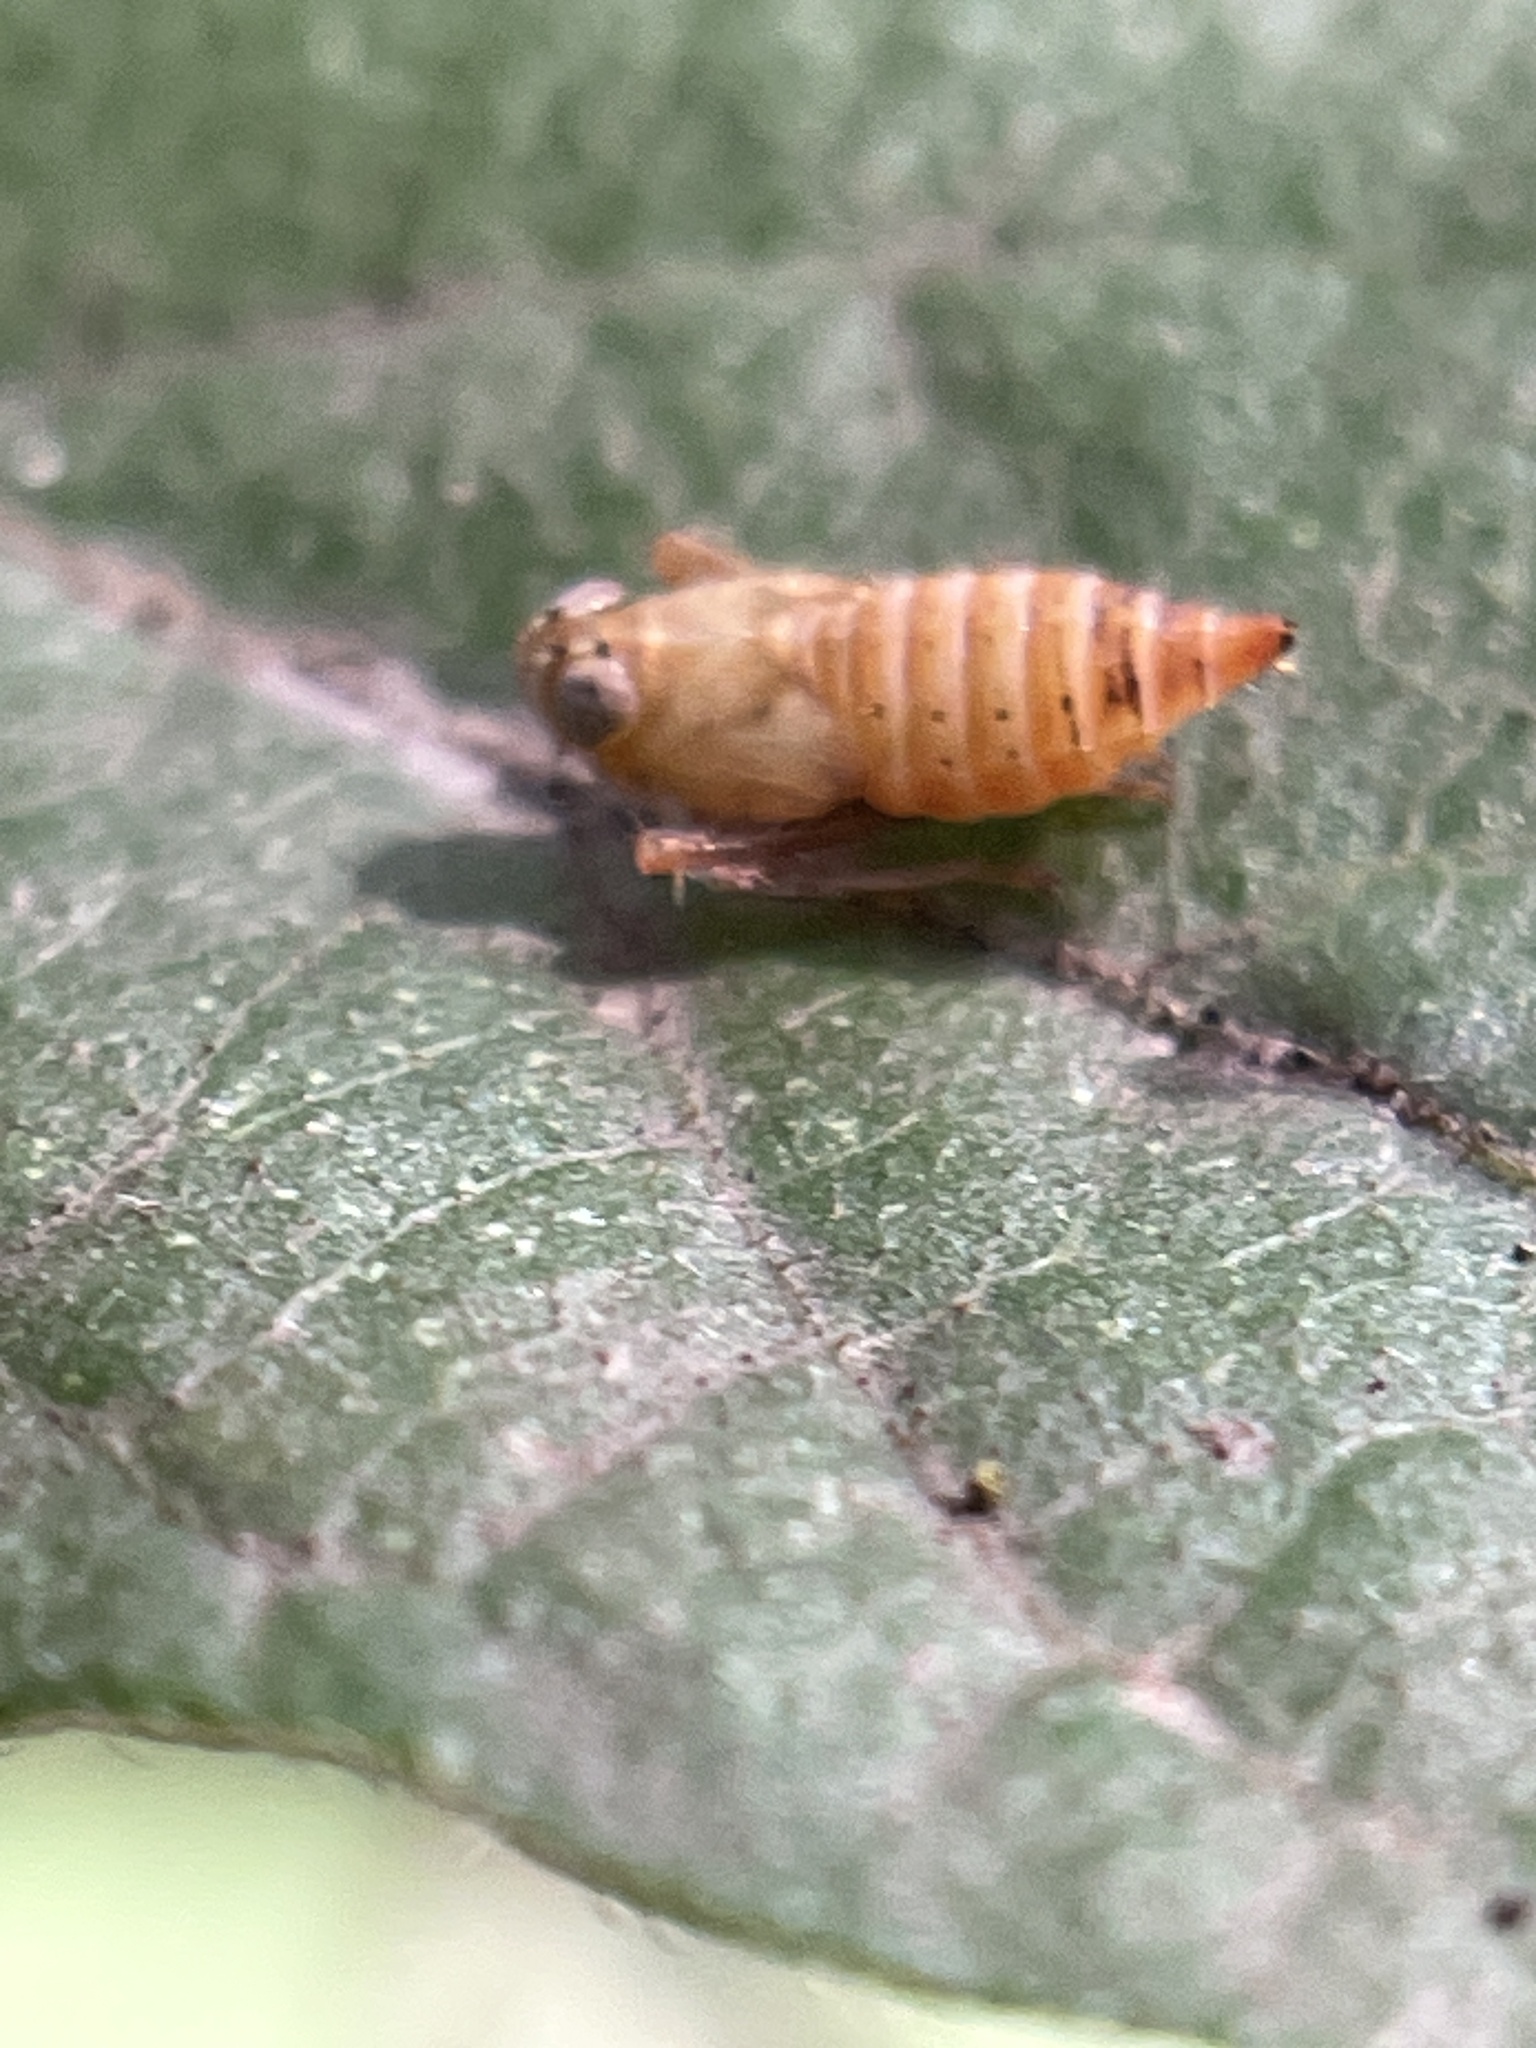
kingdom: Animalia
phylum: Arthropoda
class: Insecta
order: Hemiptera
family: Cicadellidae
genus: Jikradia
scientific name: Jikradia olitoria
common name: Coppery leafhopper
